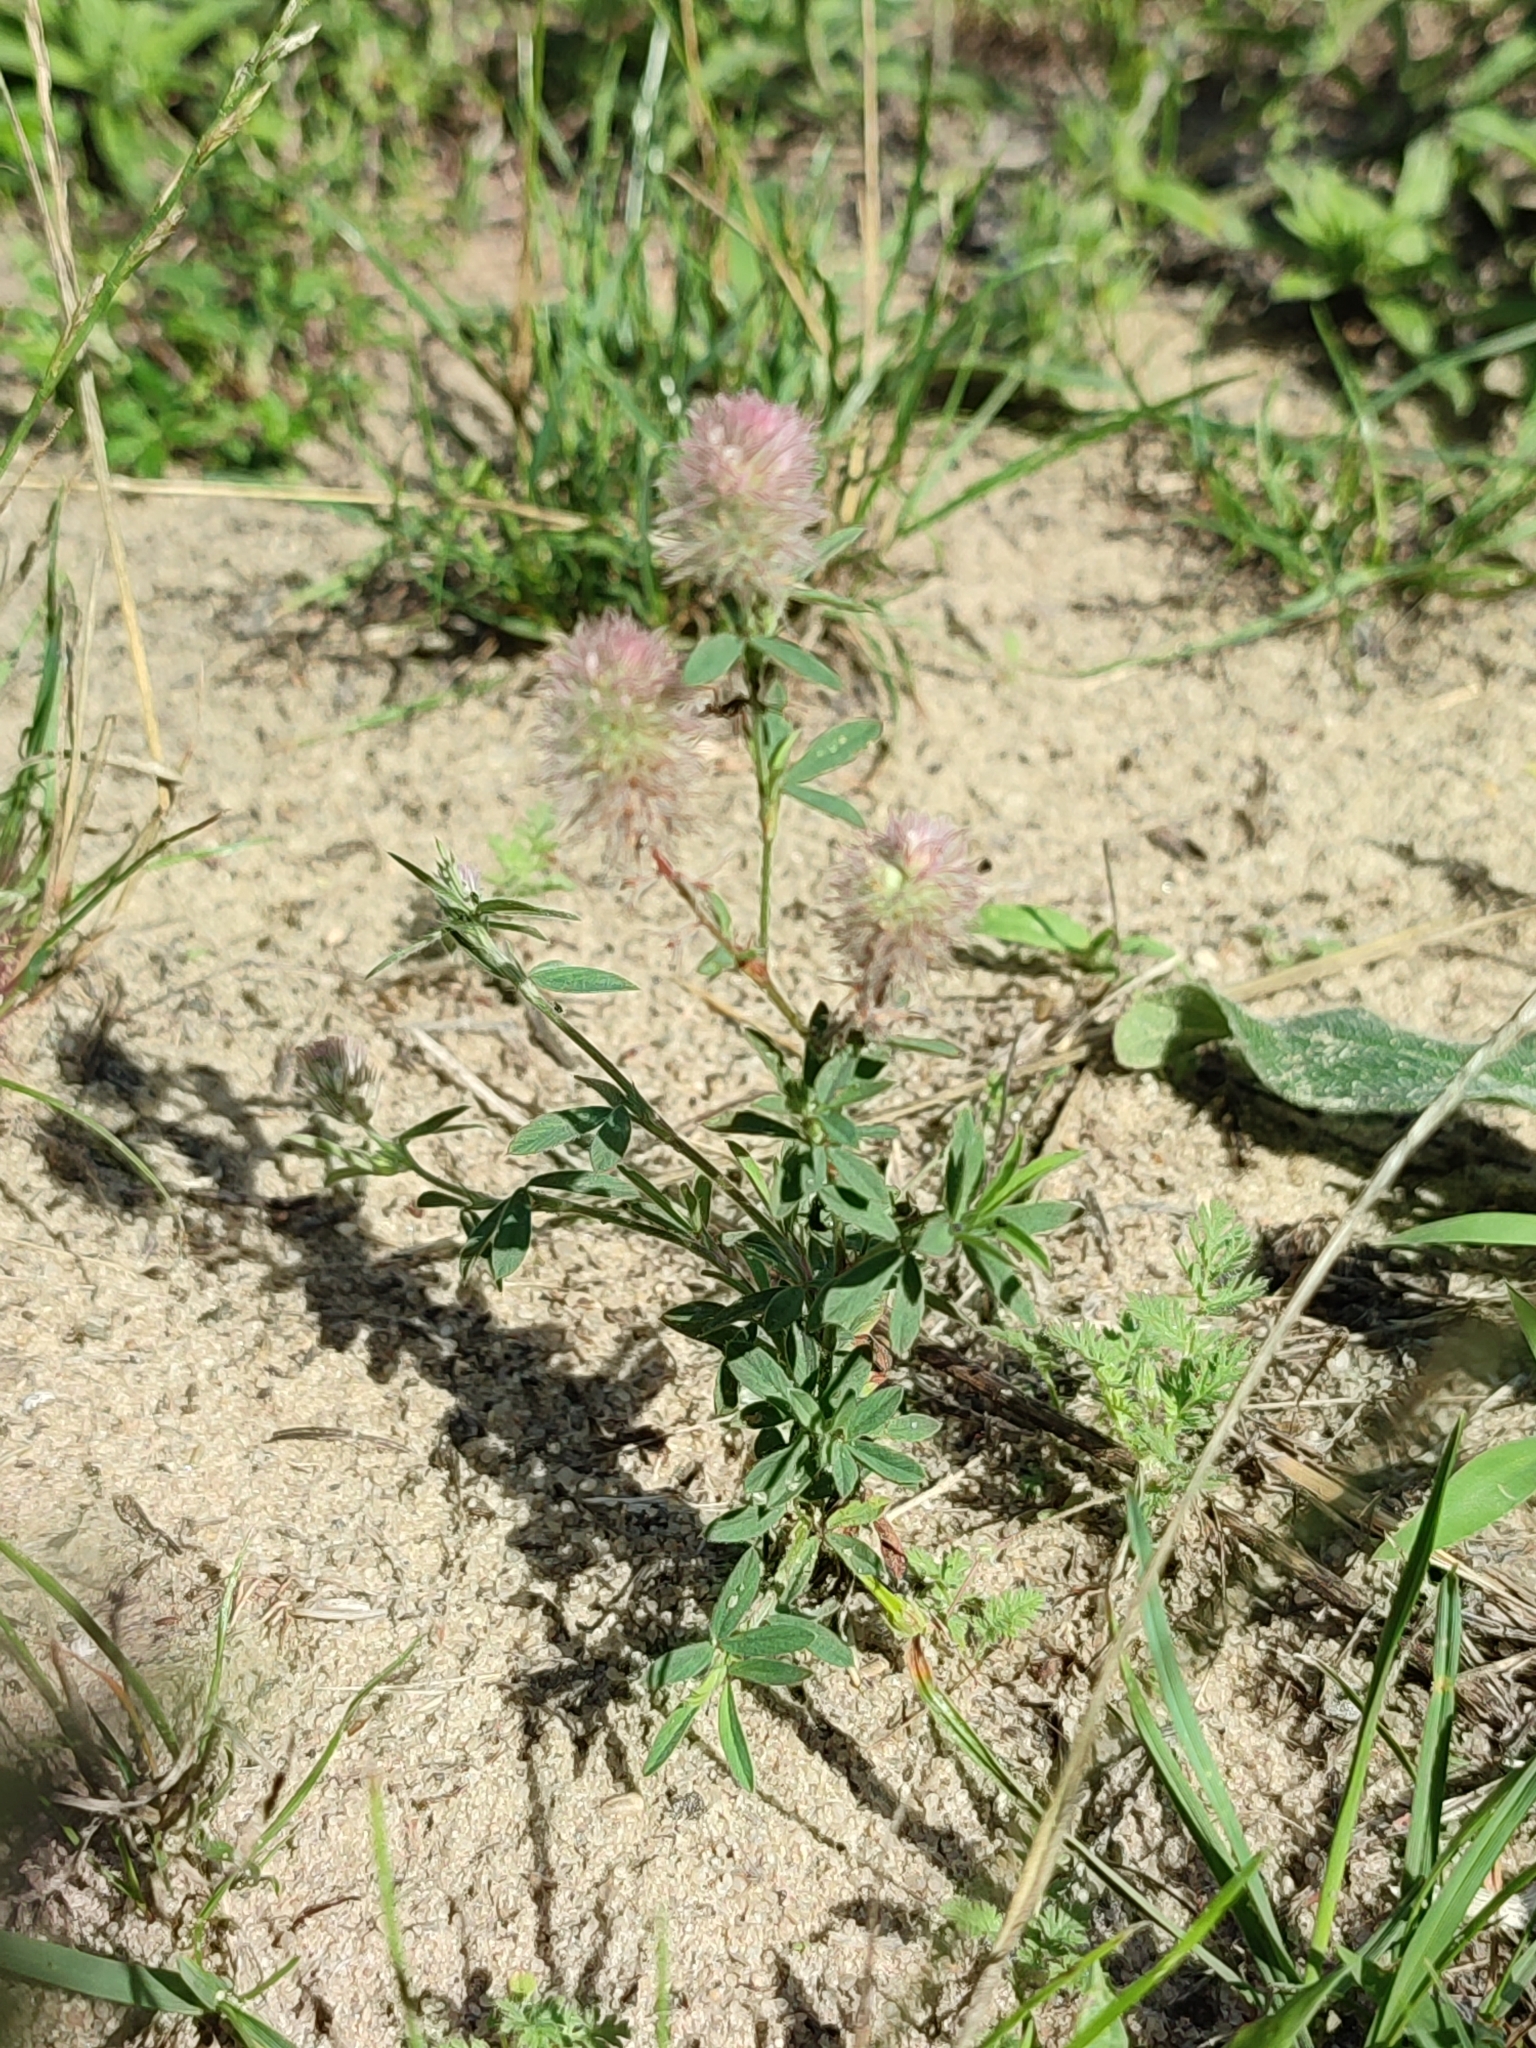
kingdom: Plantae
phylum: Tracheophyta
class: Magnoliopsida
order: Fabales
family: Fabaceae
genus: Trifolium
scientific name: Trifolium arvense
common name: Hare's-foot clover
